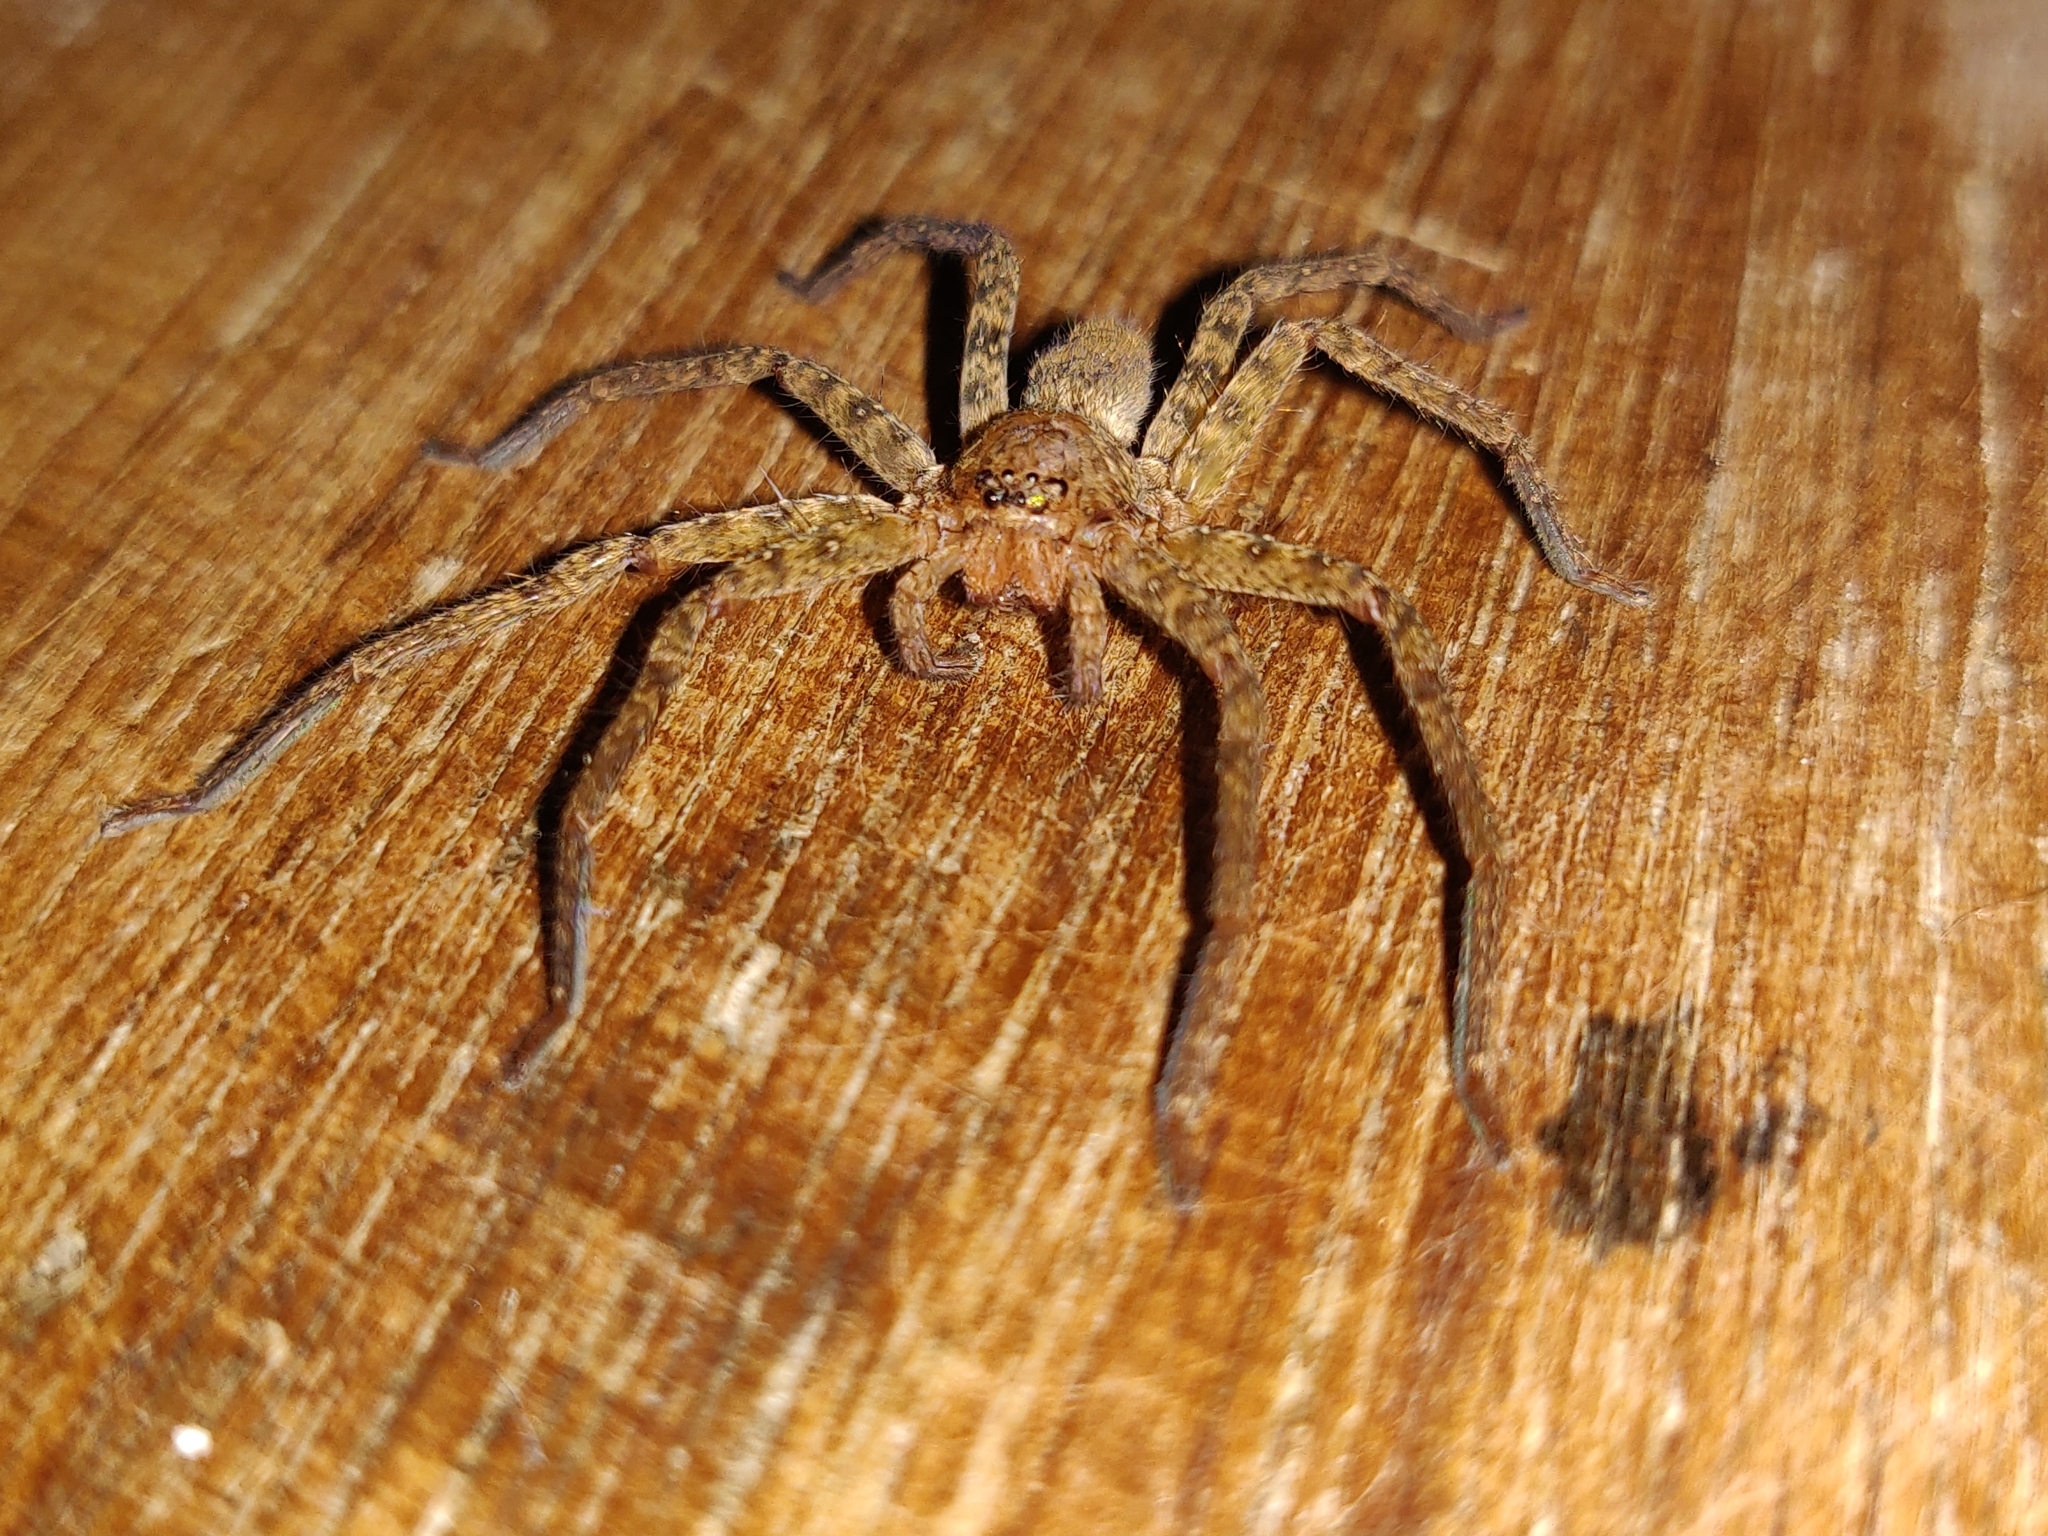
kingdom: Animalia
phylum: Arthropoda
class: Arachnida
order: Araneae
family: Sparassidae
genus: Heteropoda
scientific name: Heteropoda venatoria
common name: Huntsman spider
